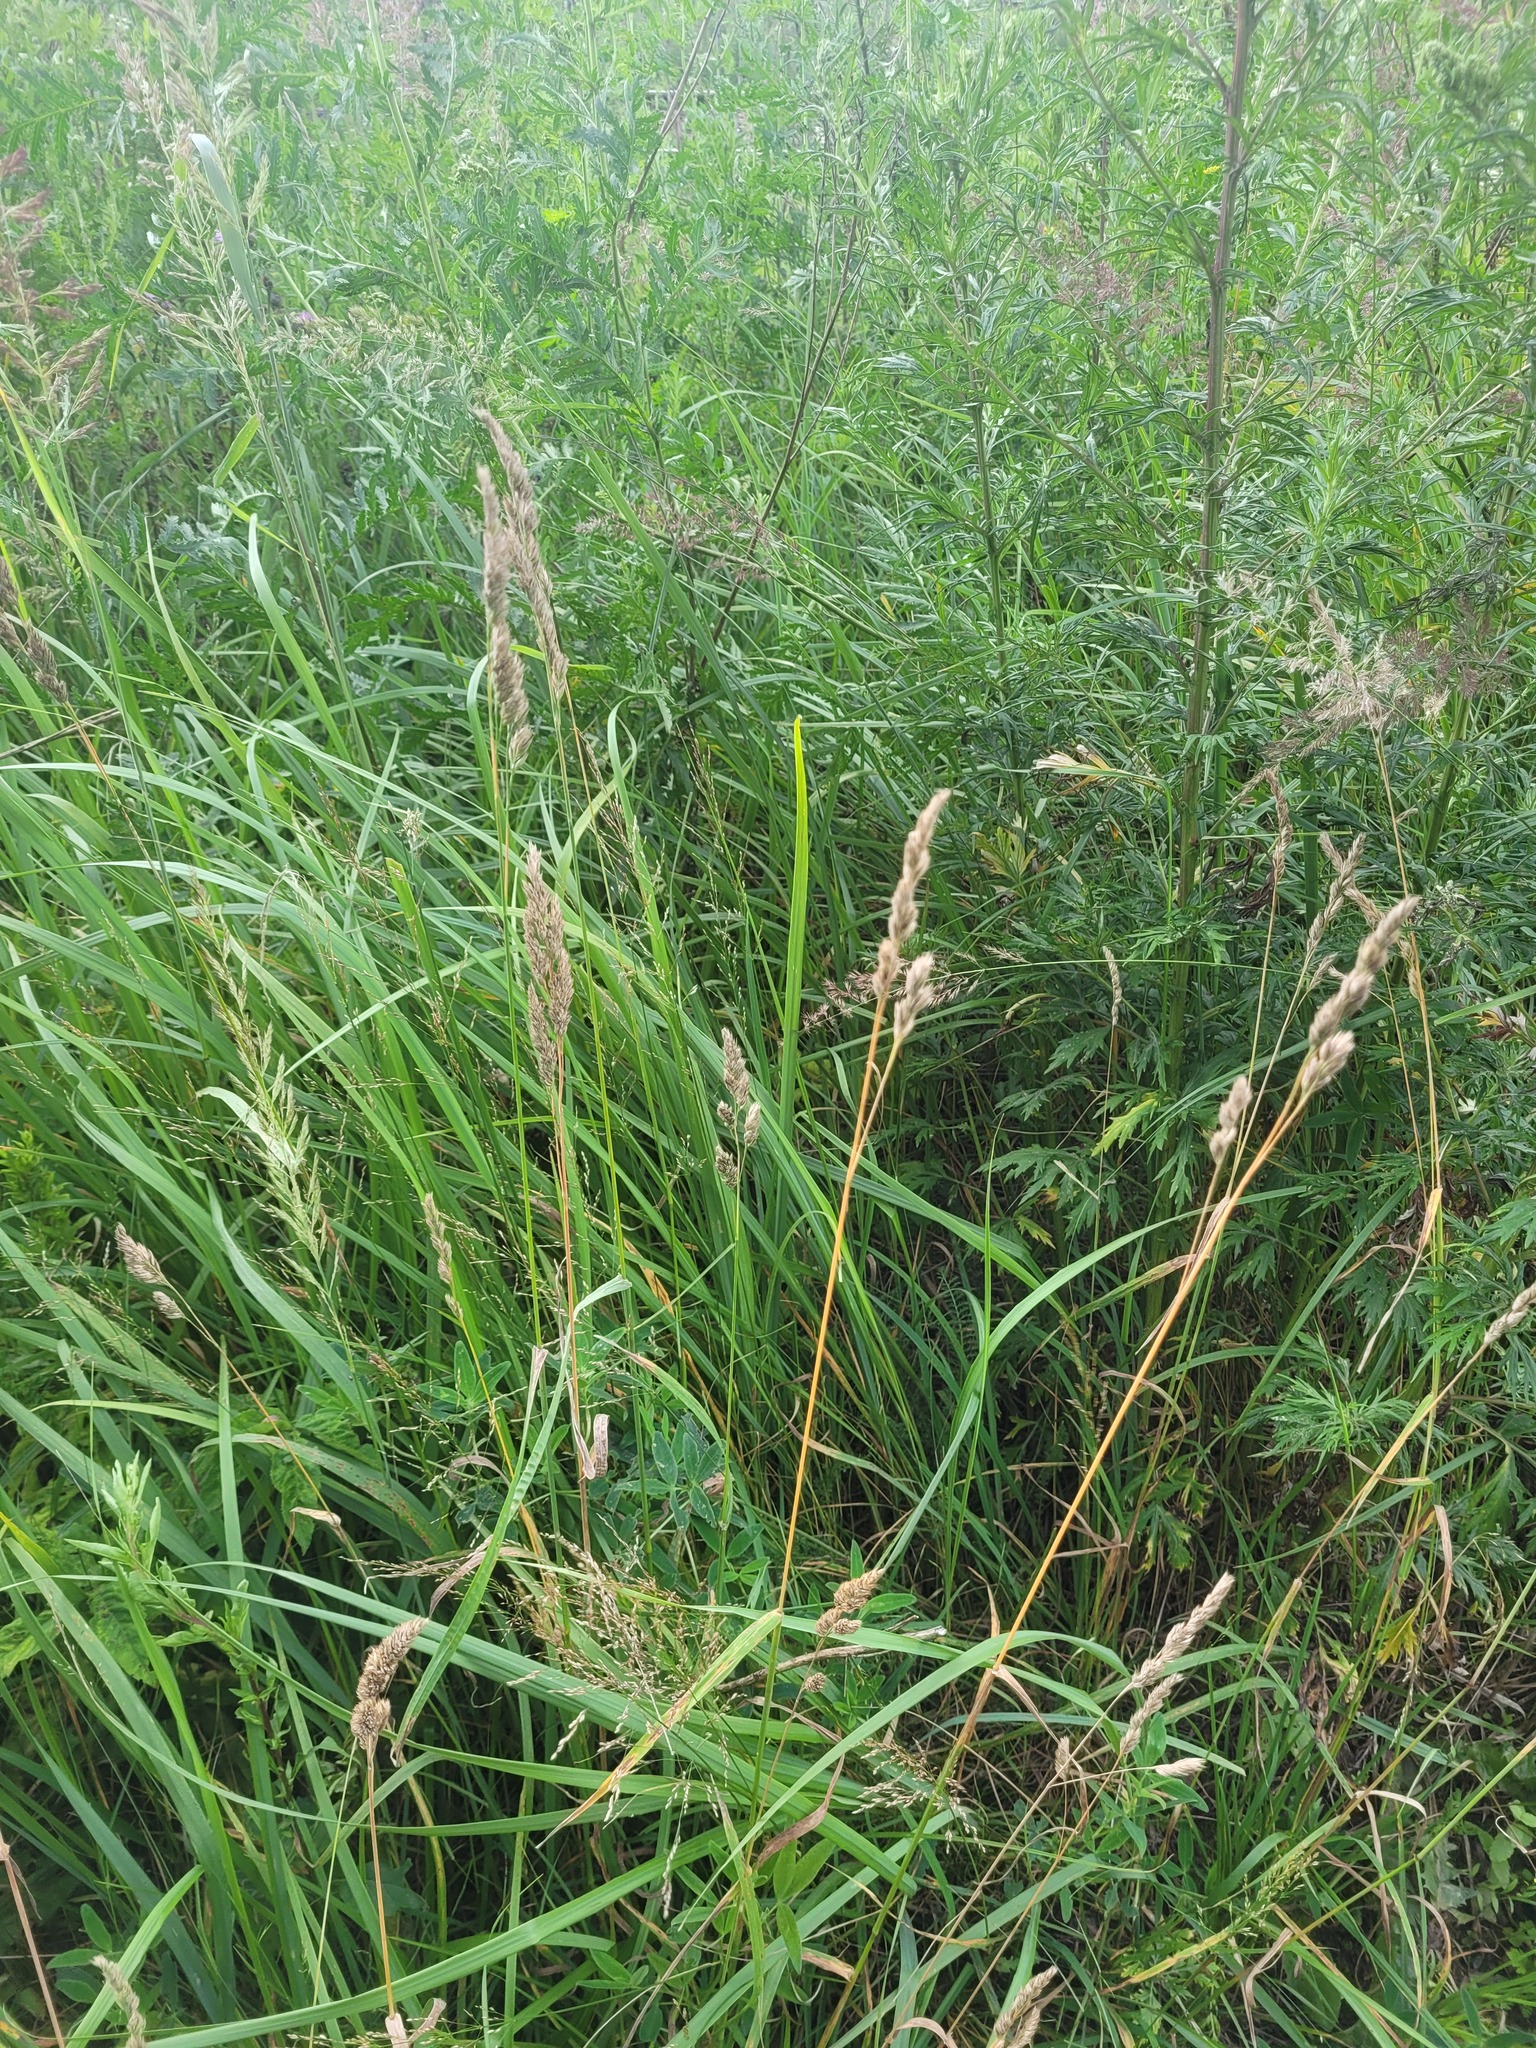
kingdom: Plantae
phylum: Tracheophyta
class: Liliopsida
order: Poales
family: Poaceae
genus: Dactylis
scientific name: Dactylis glomerata
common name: Orchardgrass
